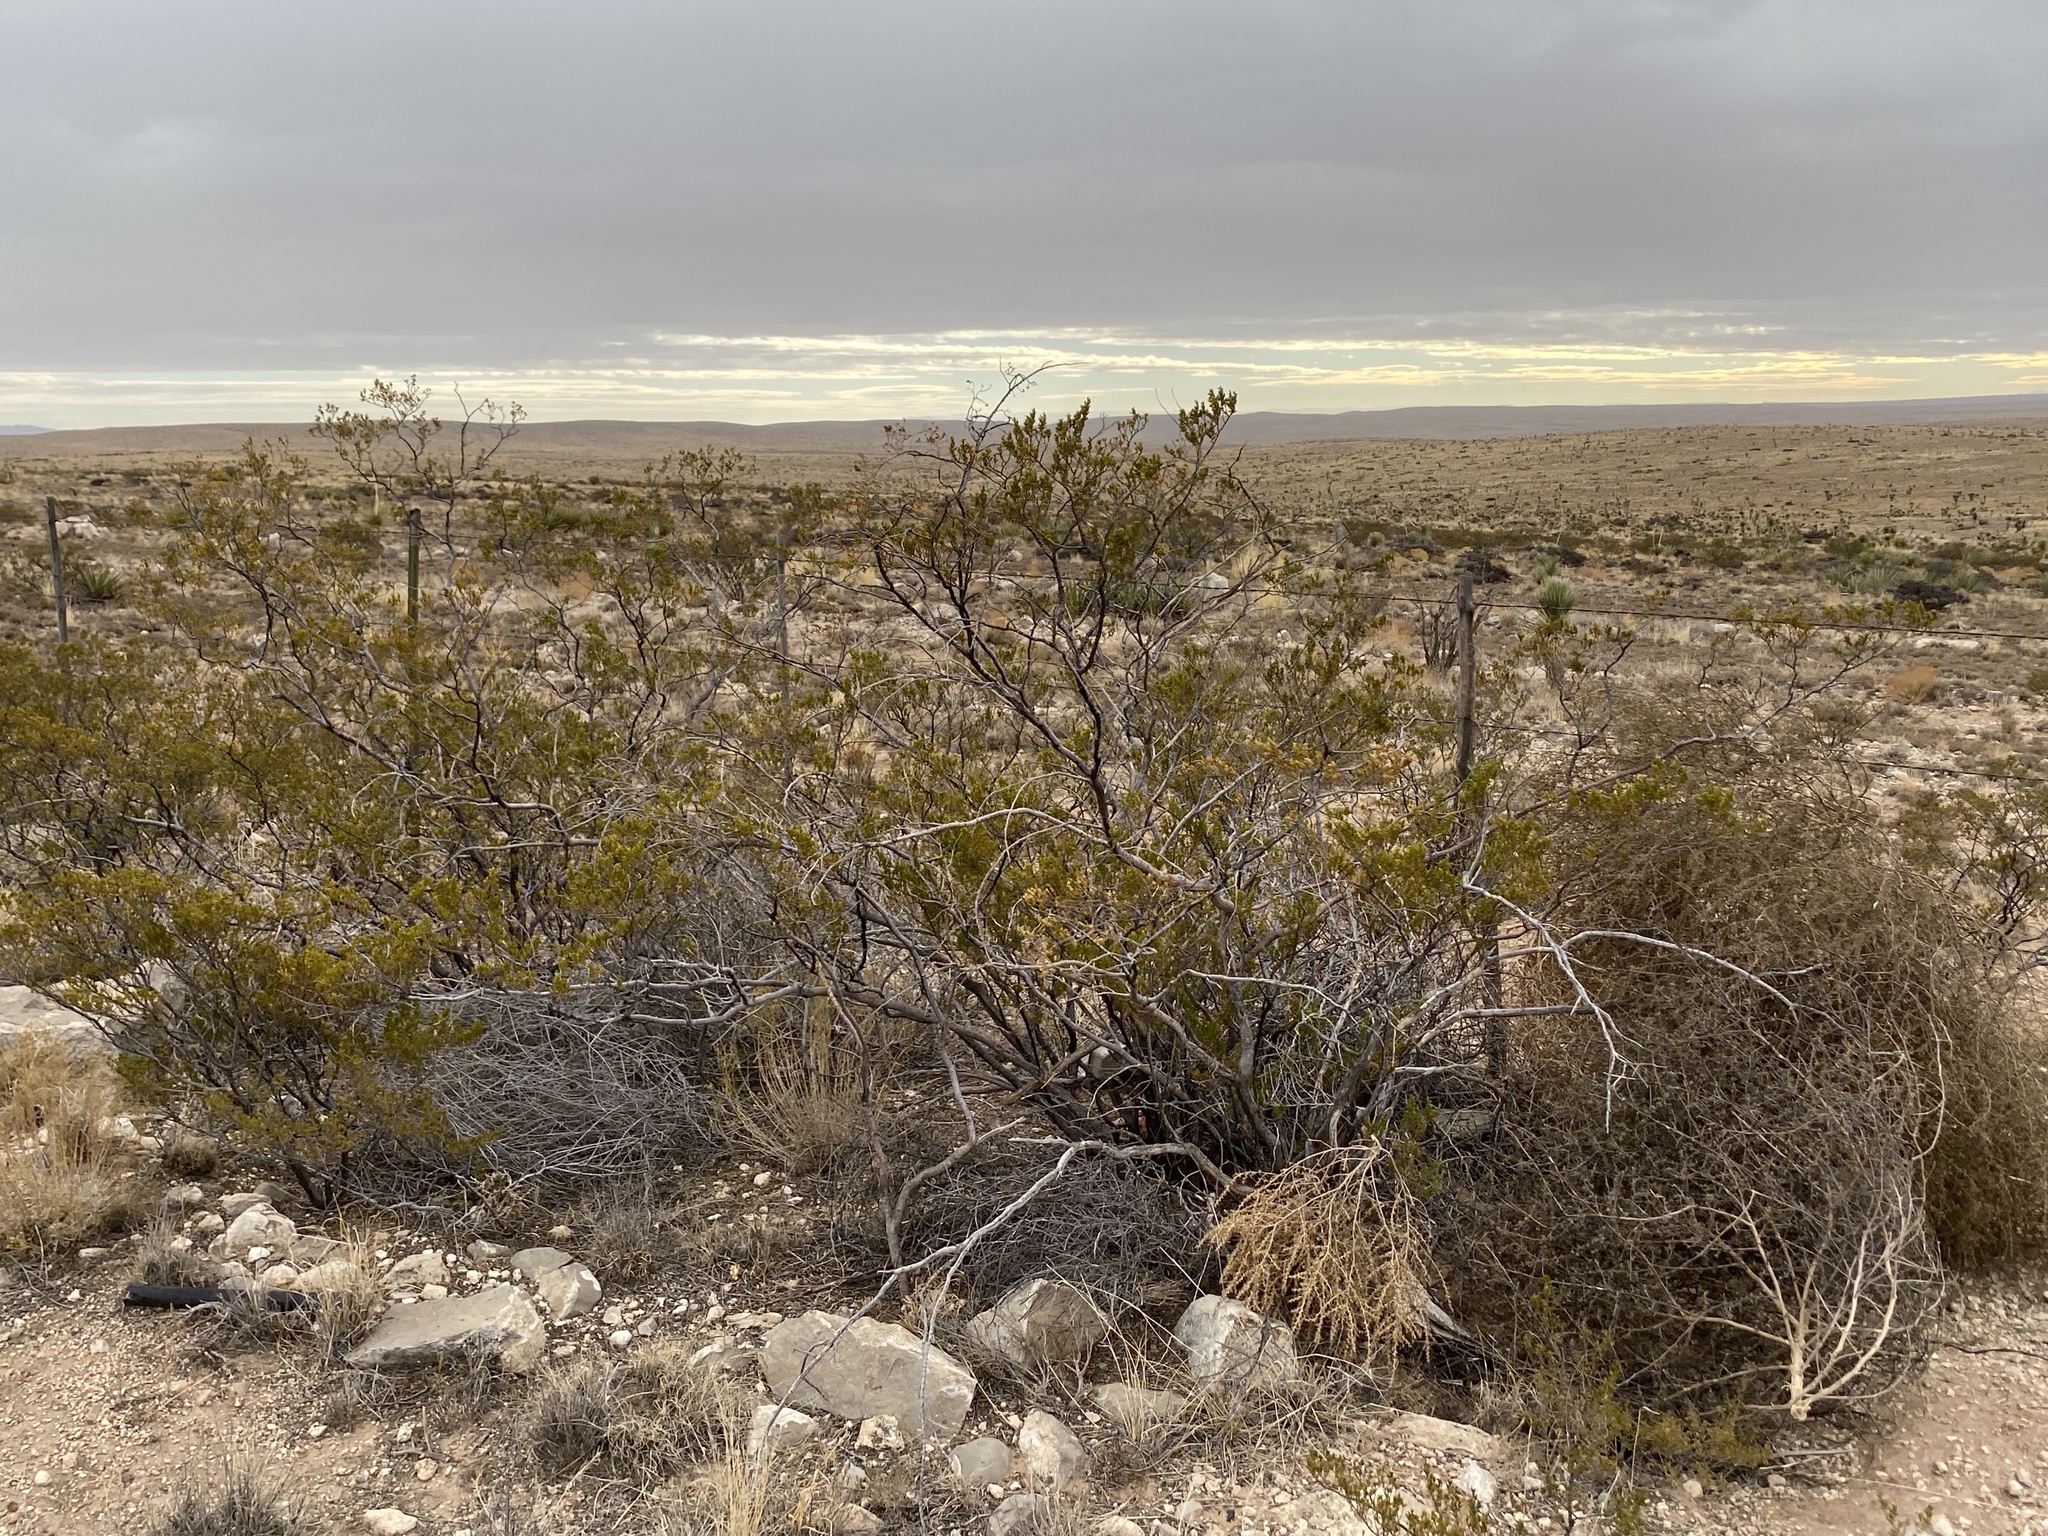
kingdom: Plantae
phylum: Tracheophyta
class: Magnoliopsida
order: Zygophyllales
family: Zygophyllaceae
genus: Larrea
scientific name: Larrea tridentata
